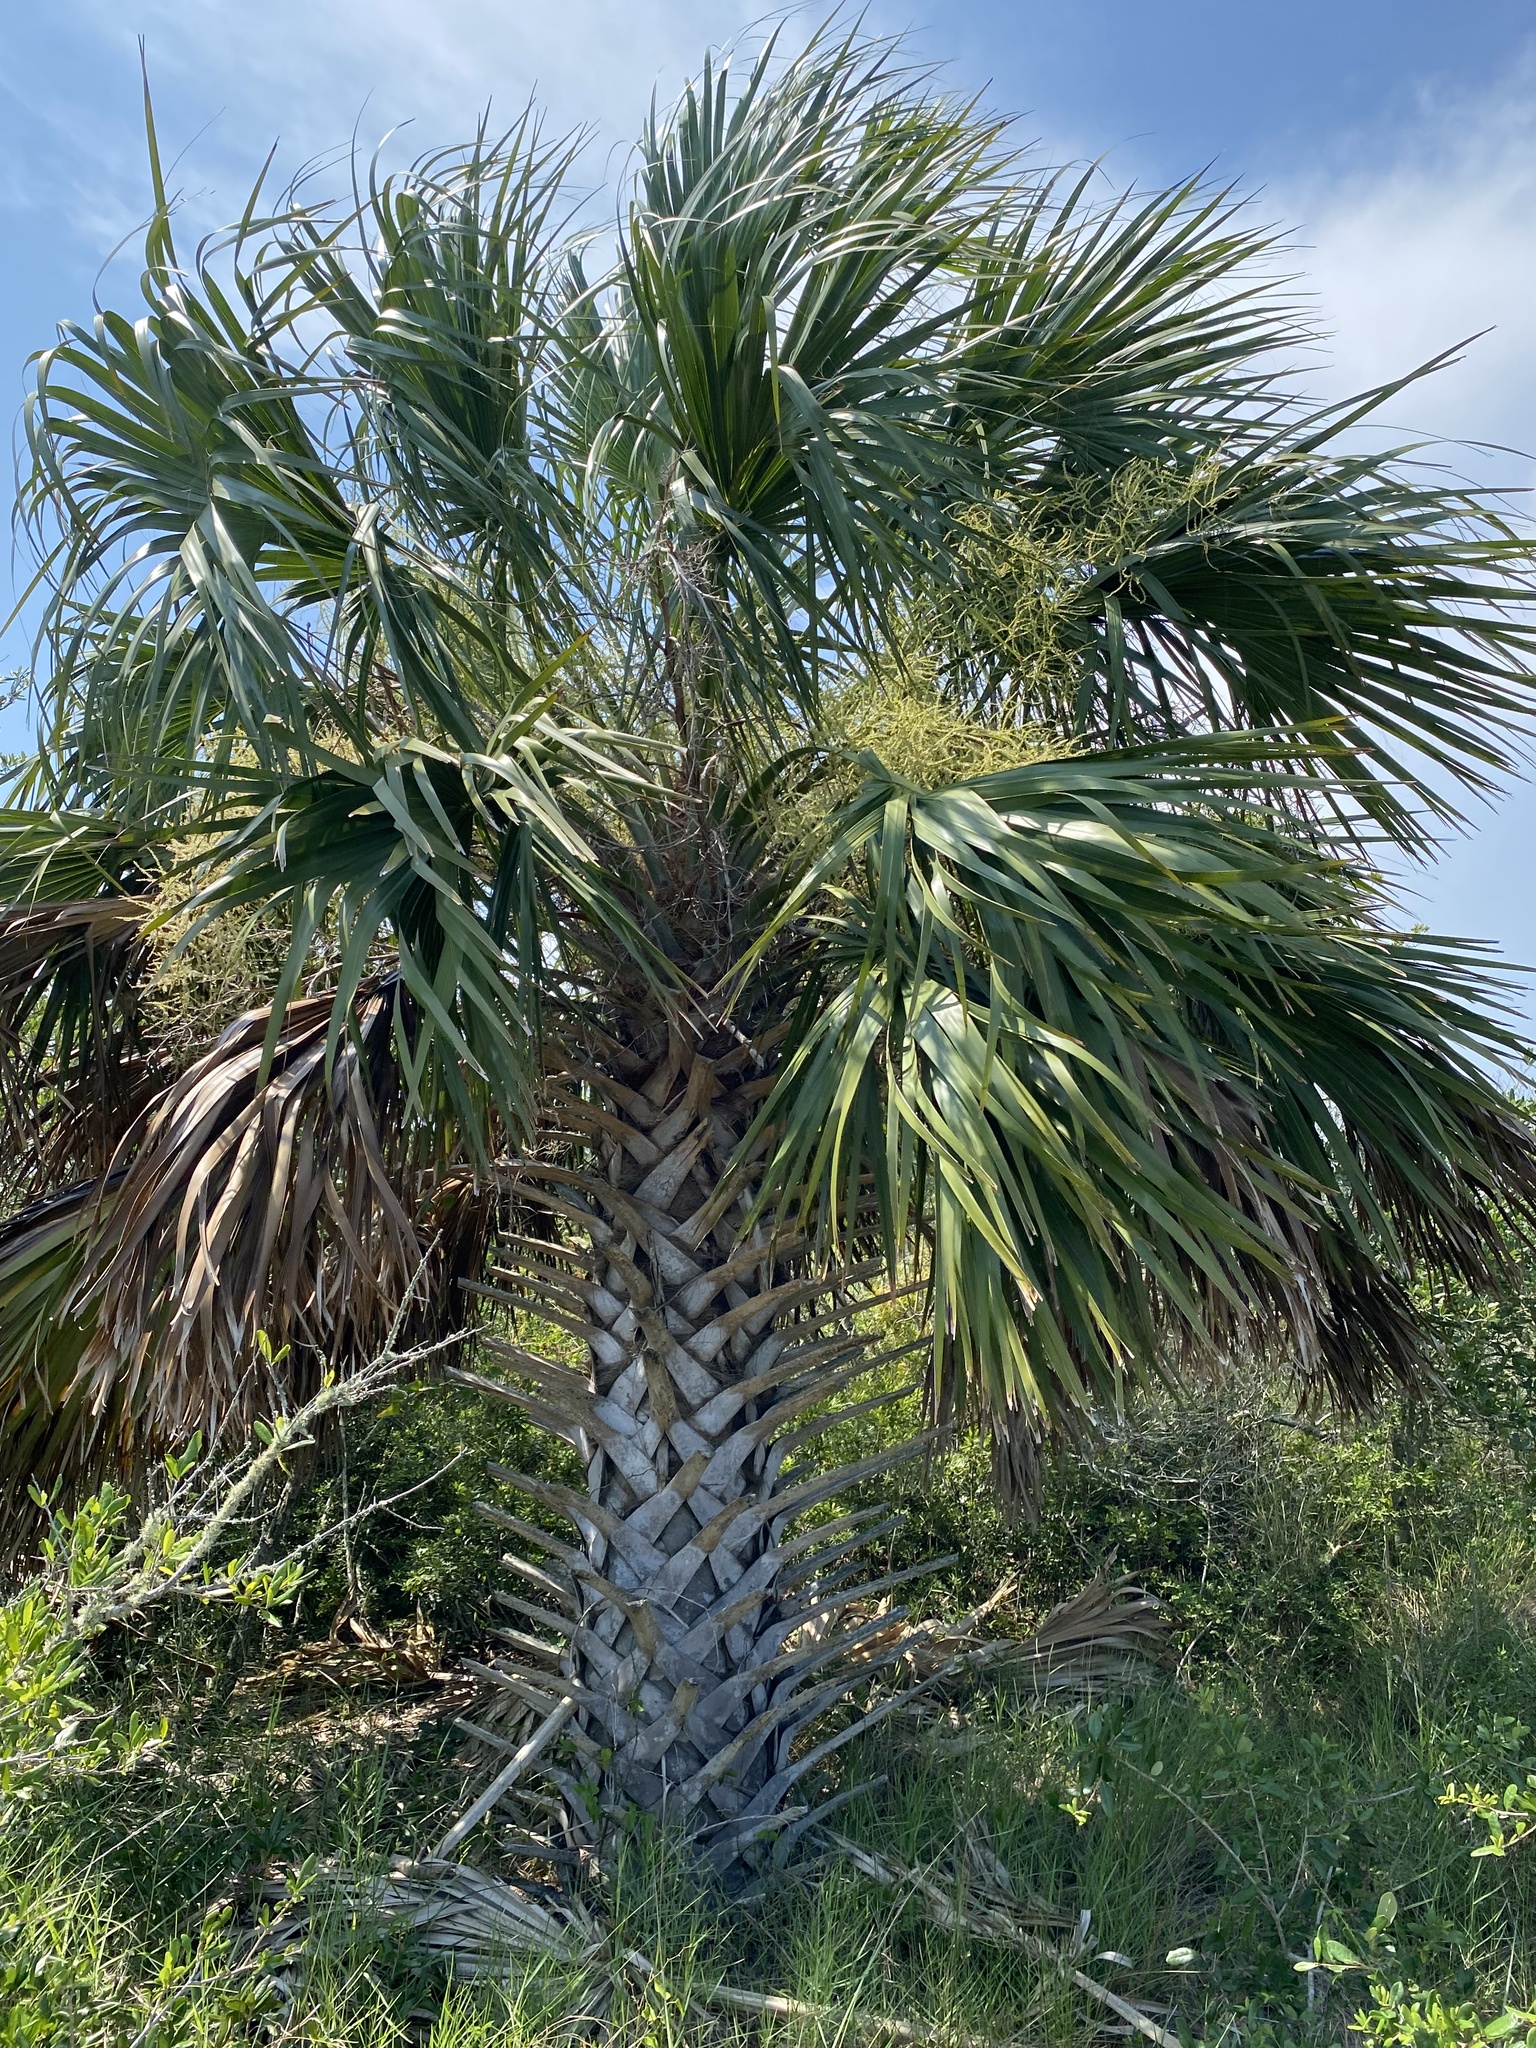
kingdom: Plantae
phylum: Tracheophyta
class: Liliopsida
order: Arecales
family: Arecaceae
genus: Sabal
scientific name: Sabal palmetto
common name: Blue palmetto
